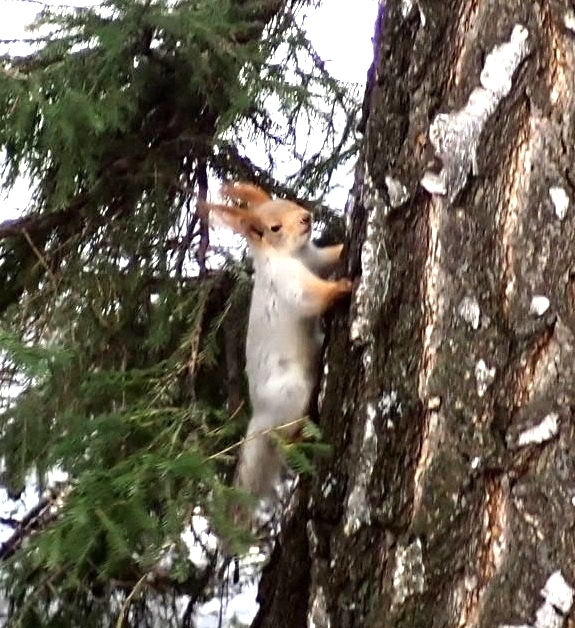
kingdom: Animalia
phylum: Chordata
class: Mammalia
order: Rodentia
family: Sciuridae
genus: Sciurus
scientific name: Sciurus vulgaris
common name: Eurasian red squirrel
